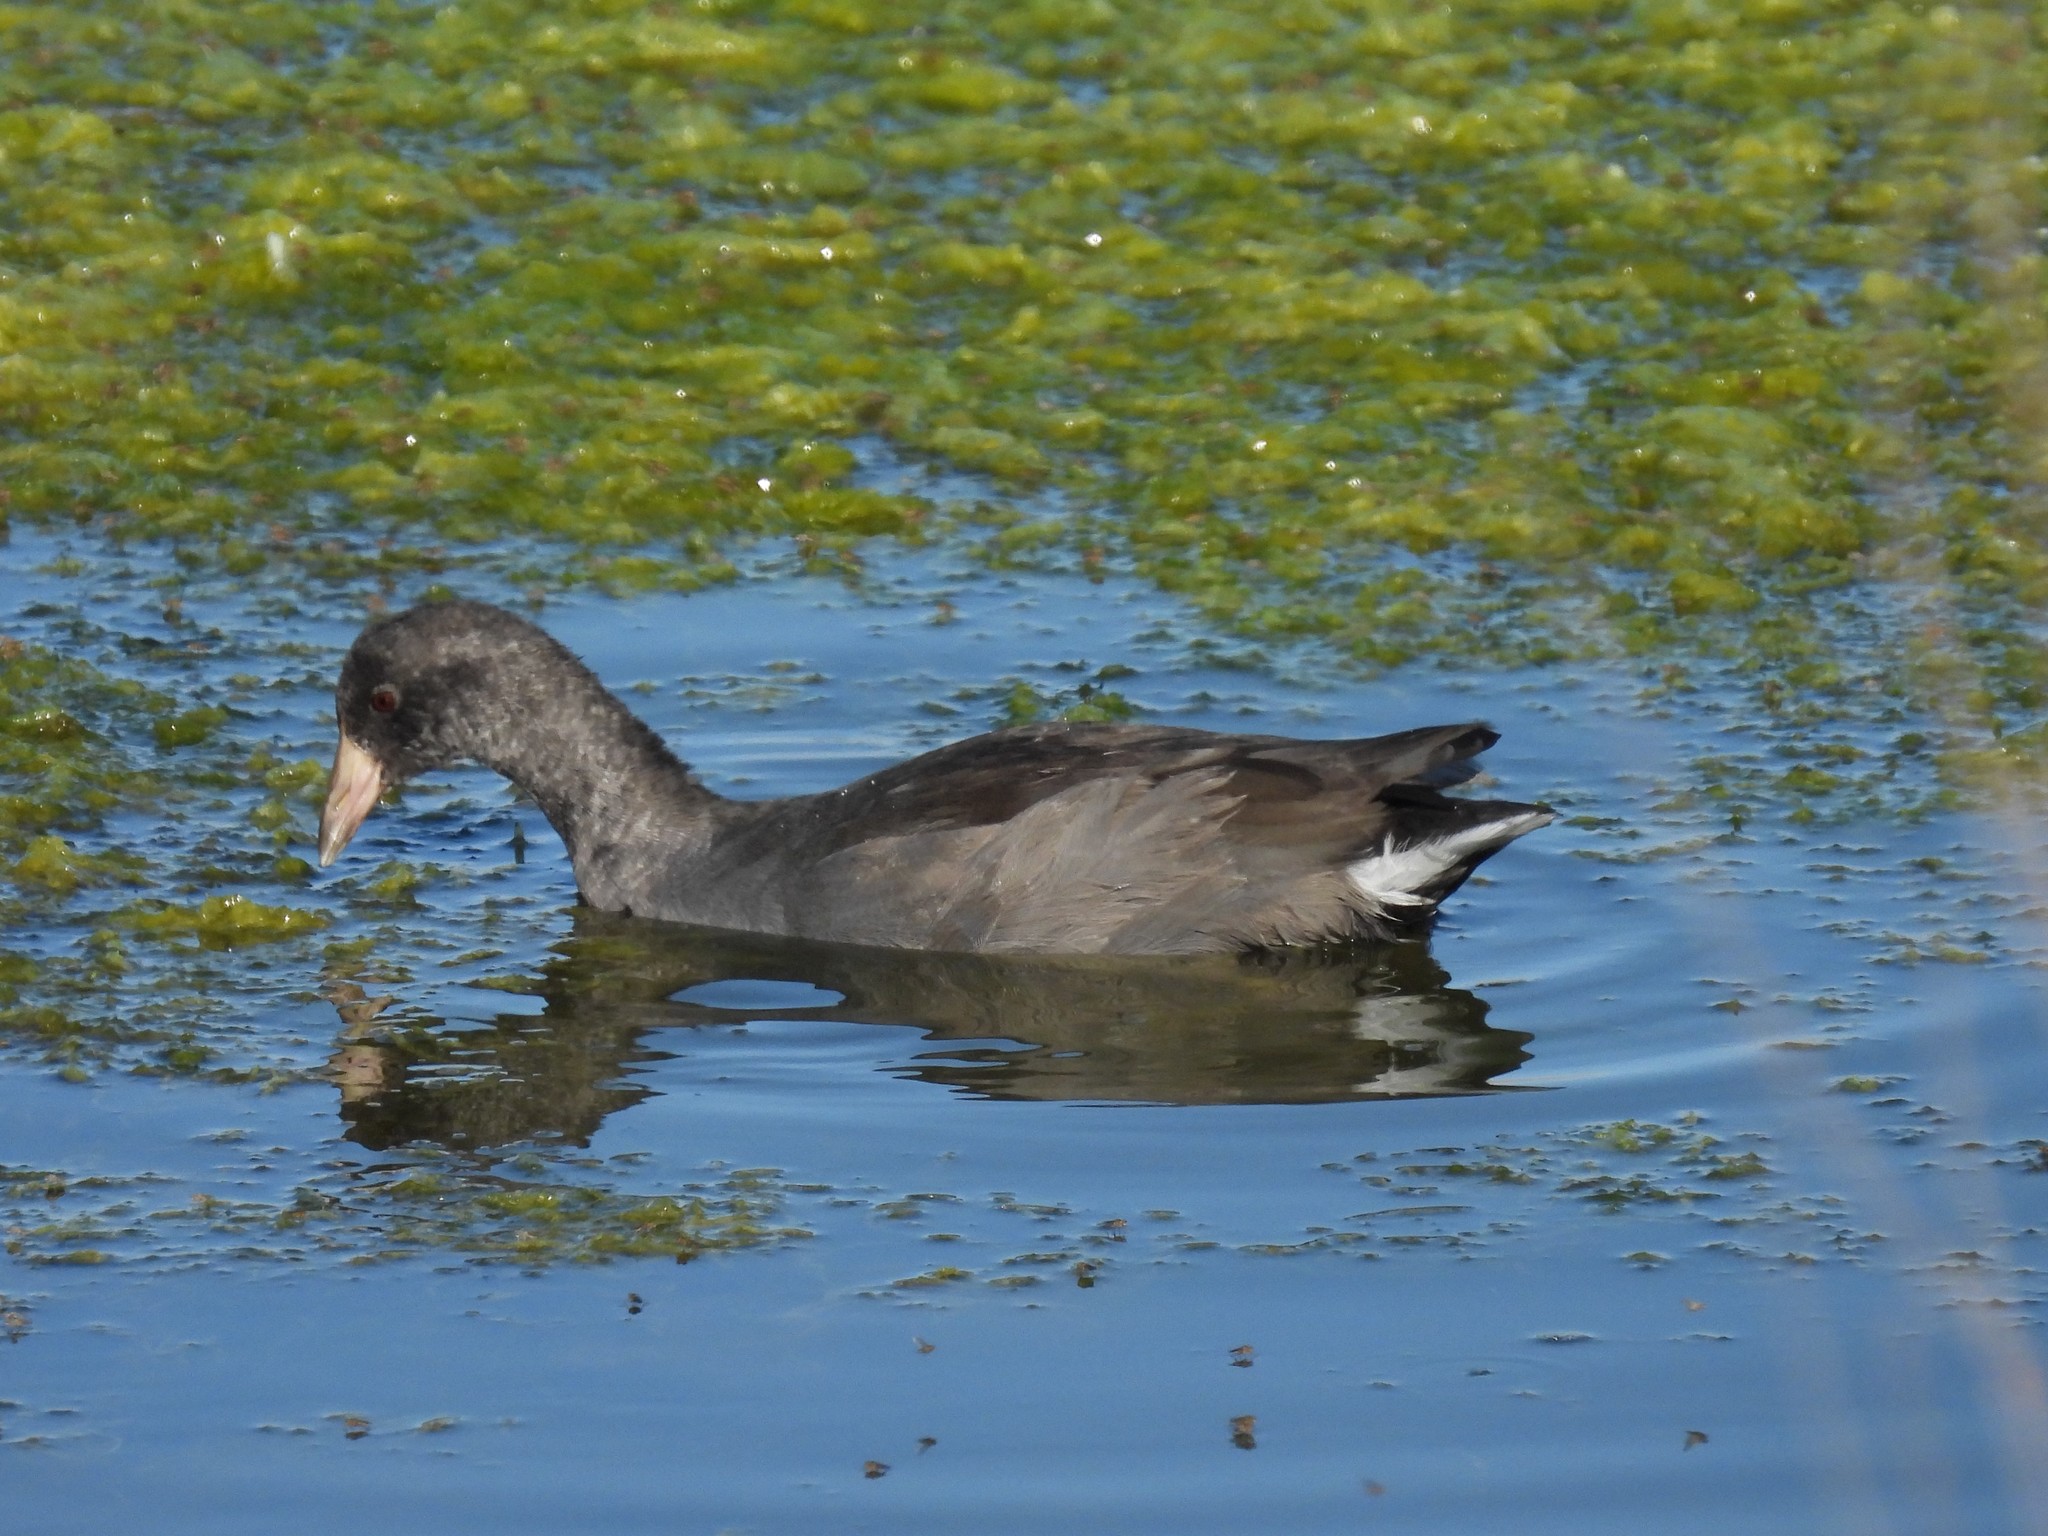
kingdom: Animalia
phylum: Chordata
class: Aves
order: Gruiformes
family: Rallidae
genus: Fulica
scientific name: Fulica americana
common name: American coot
